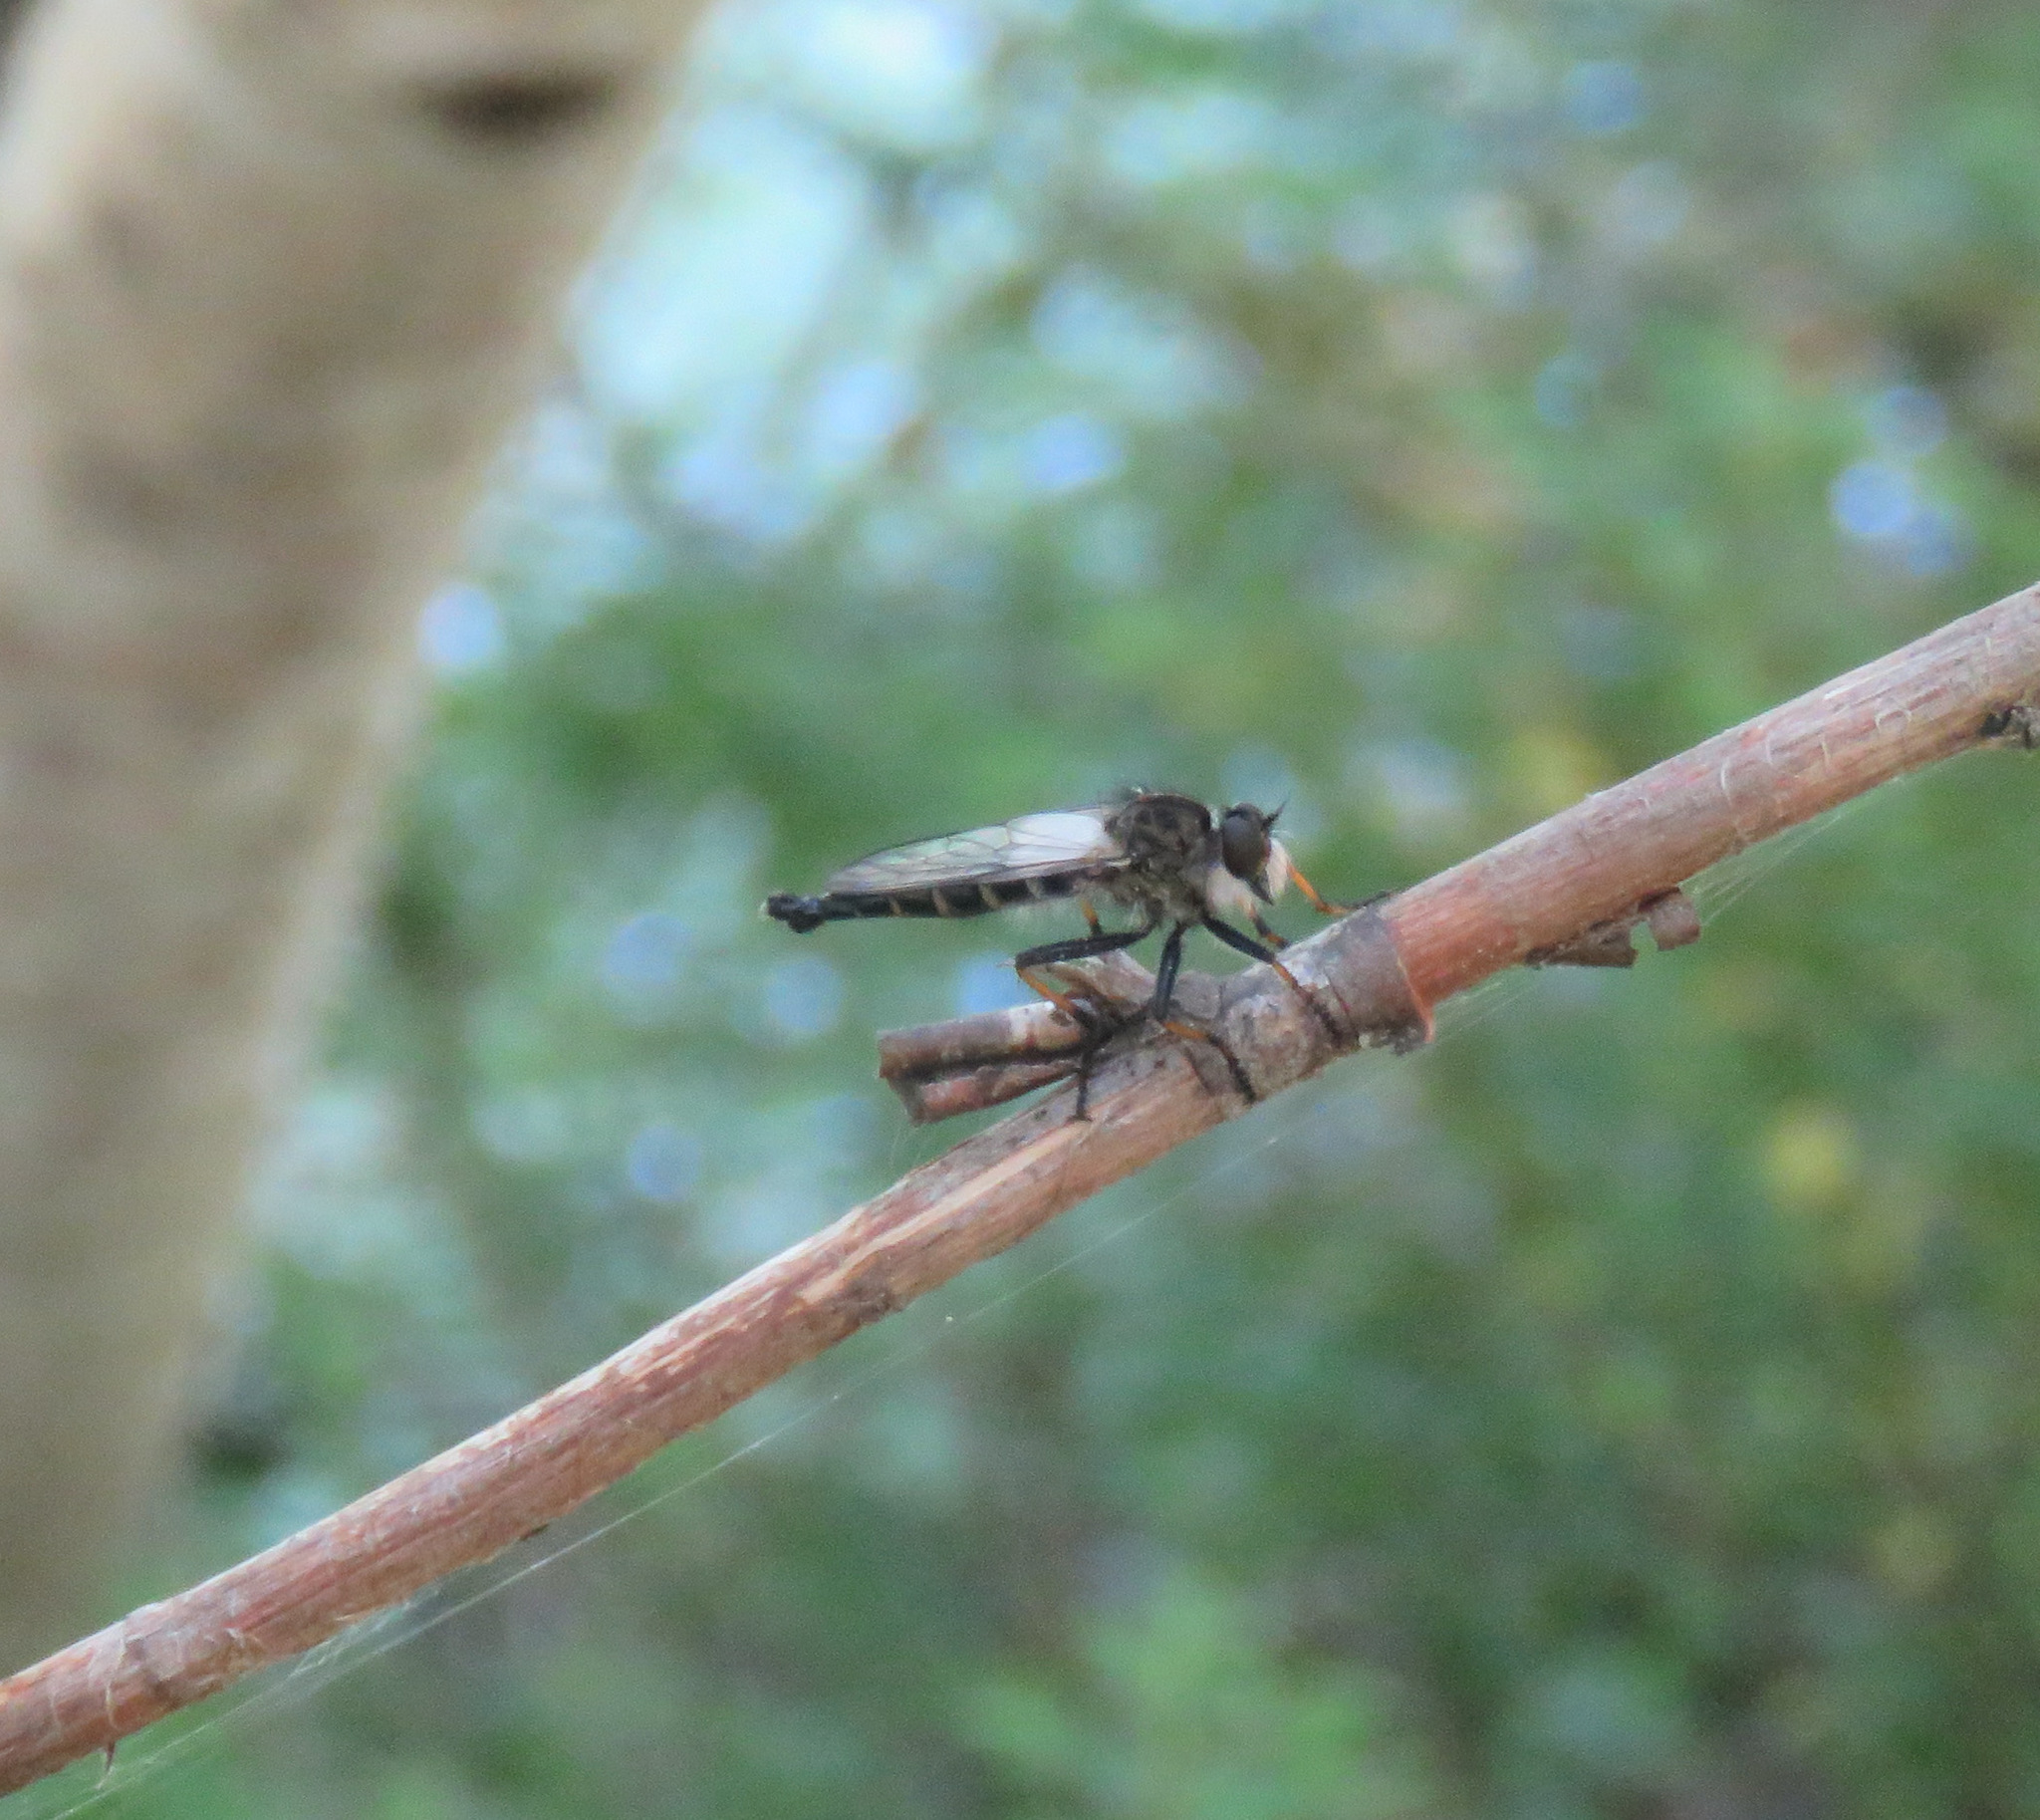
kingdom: Animalia
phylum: Arthropoda
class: Insecta
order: Diptera
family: Asilidae
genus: Neoitamus
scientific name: Neoitamus brevicomus
